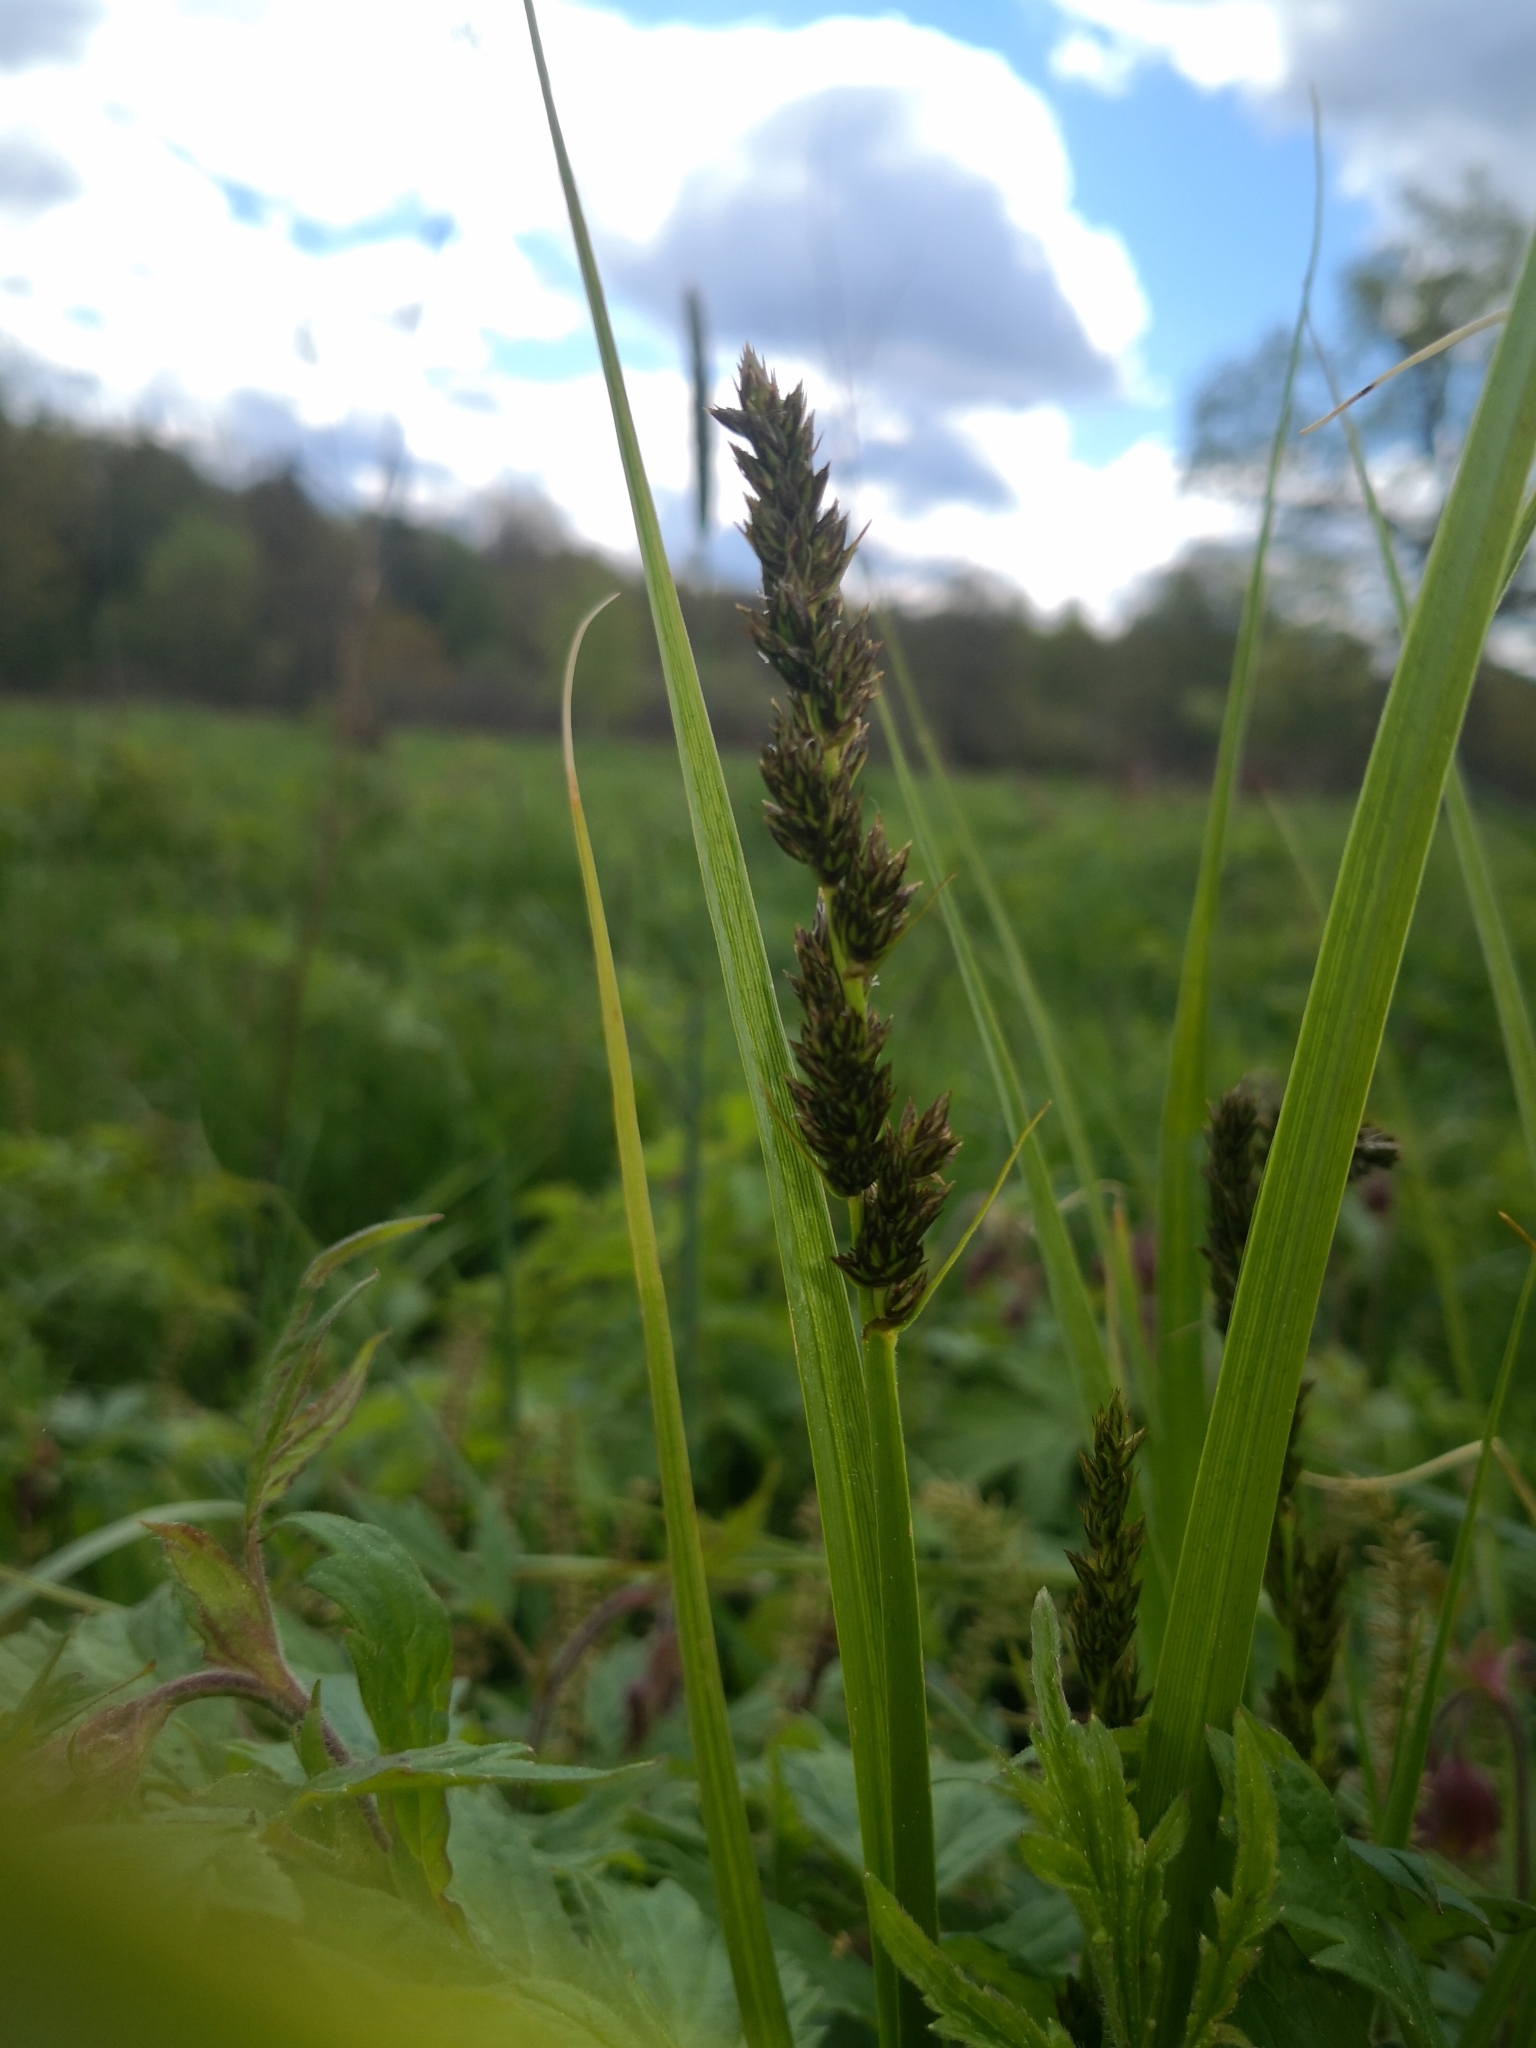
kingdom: Plantae
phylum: Tracheophyta
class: Liliopsida
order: Poales
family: Cyperaceae
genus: Carex
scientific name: Carex vulpina
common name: True fox-sedge
